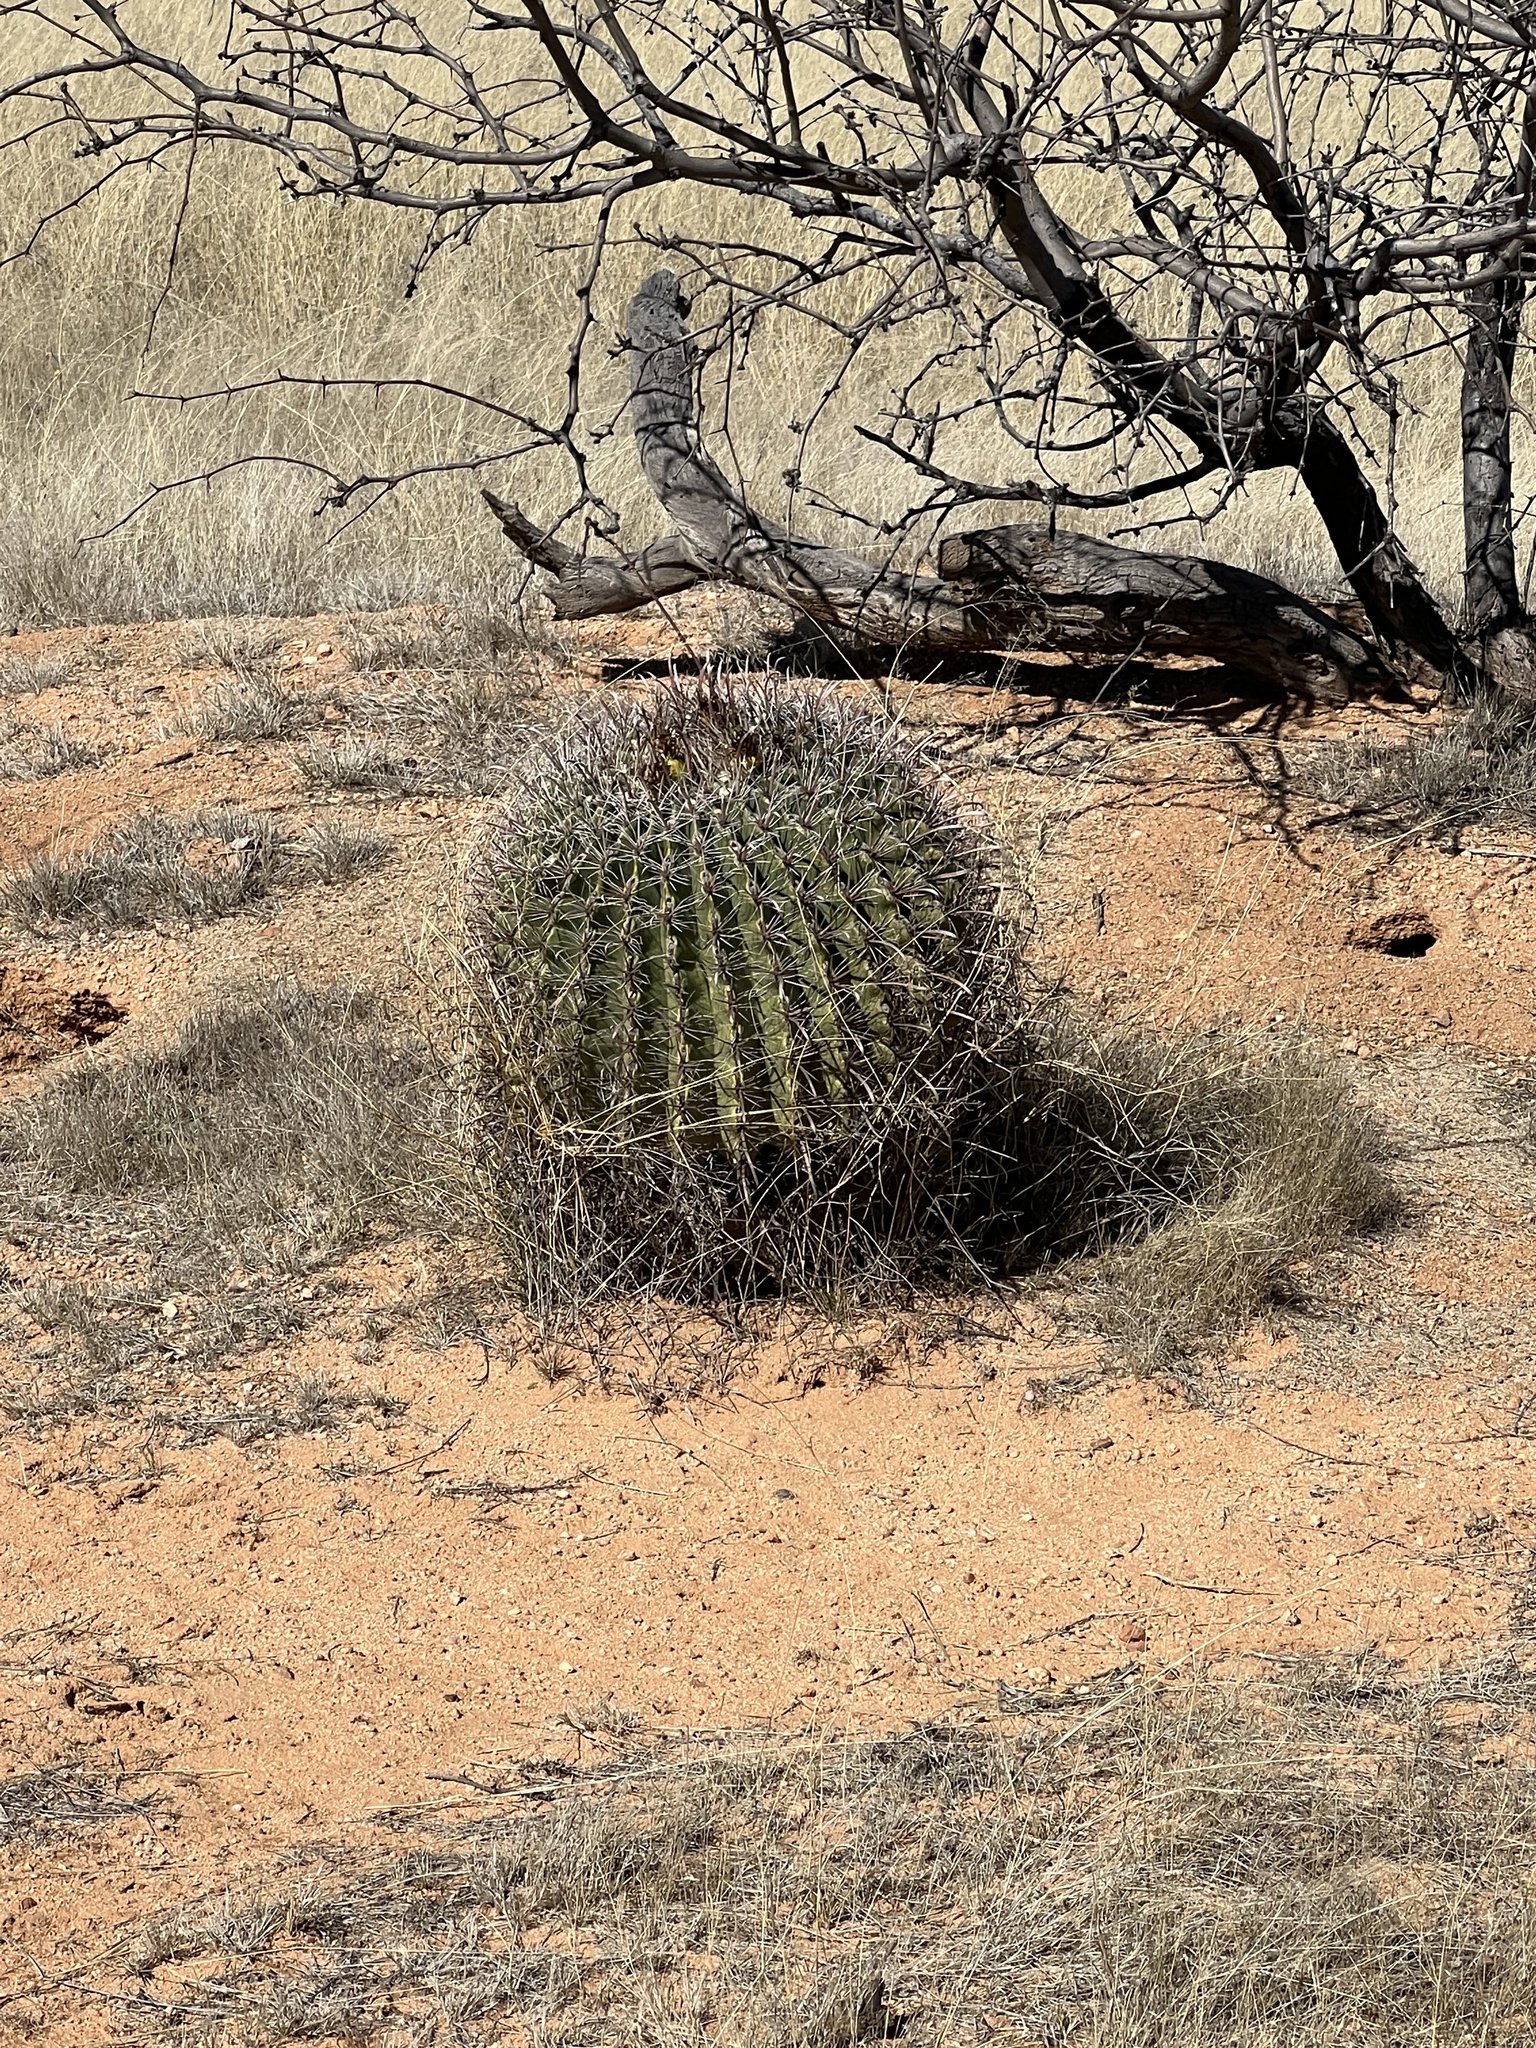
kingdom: Plantae
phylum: Tracheophyta
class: Magnoliopsida
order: Caryophyllales
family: Cactaceae
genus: Ferocactus
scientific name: Ferocactus wislizeni
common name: Candy barrel cactus
